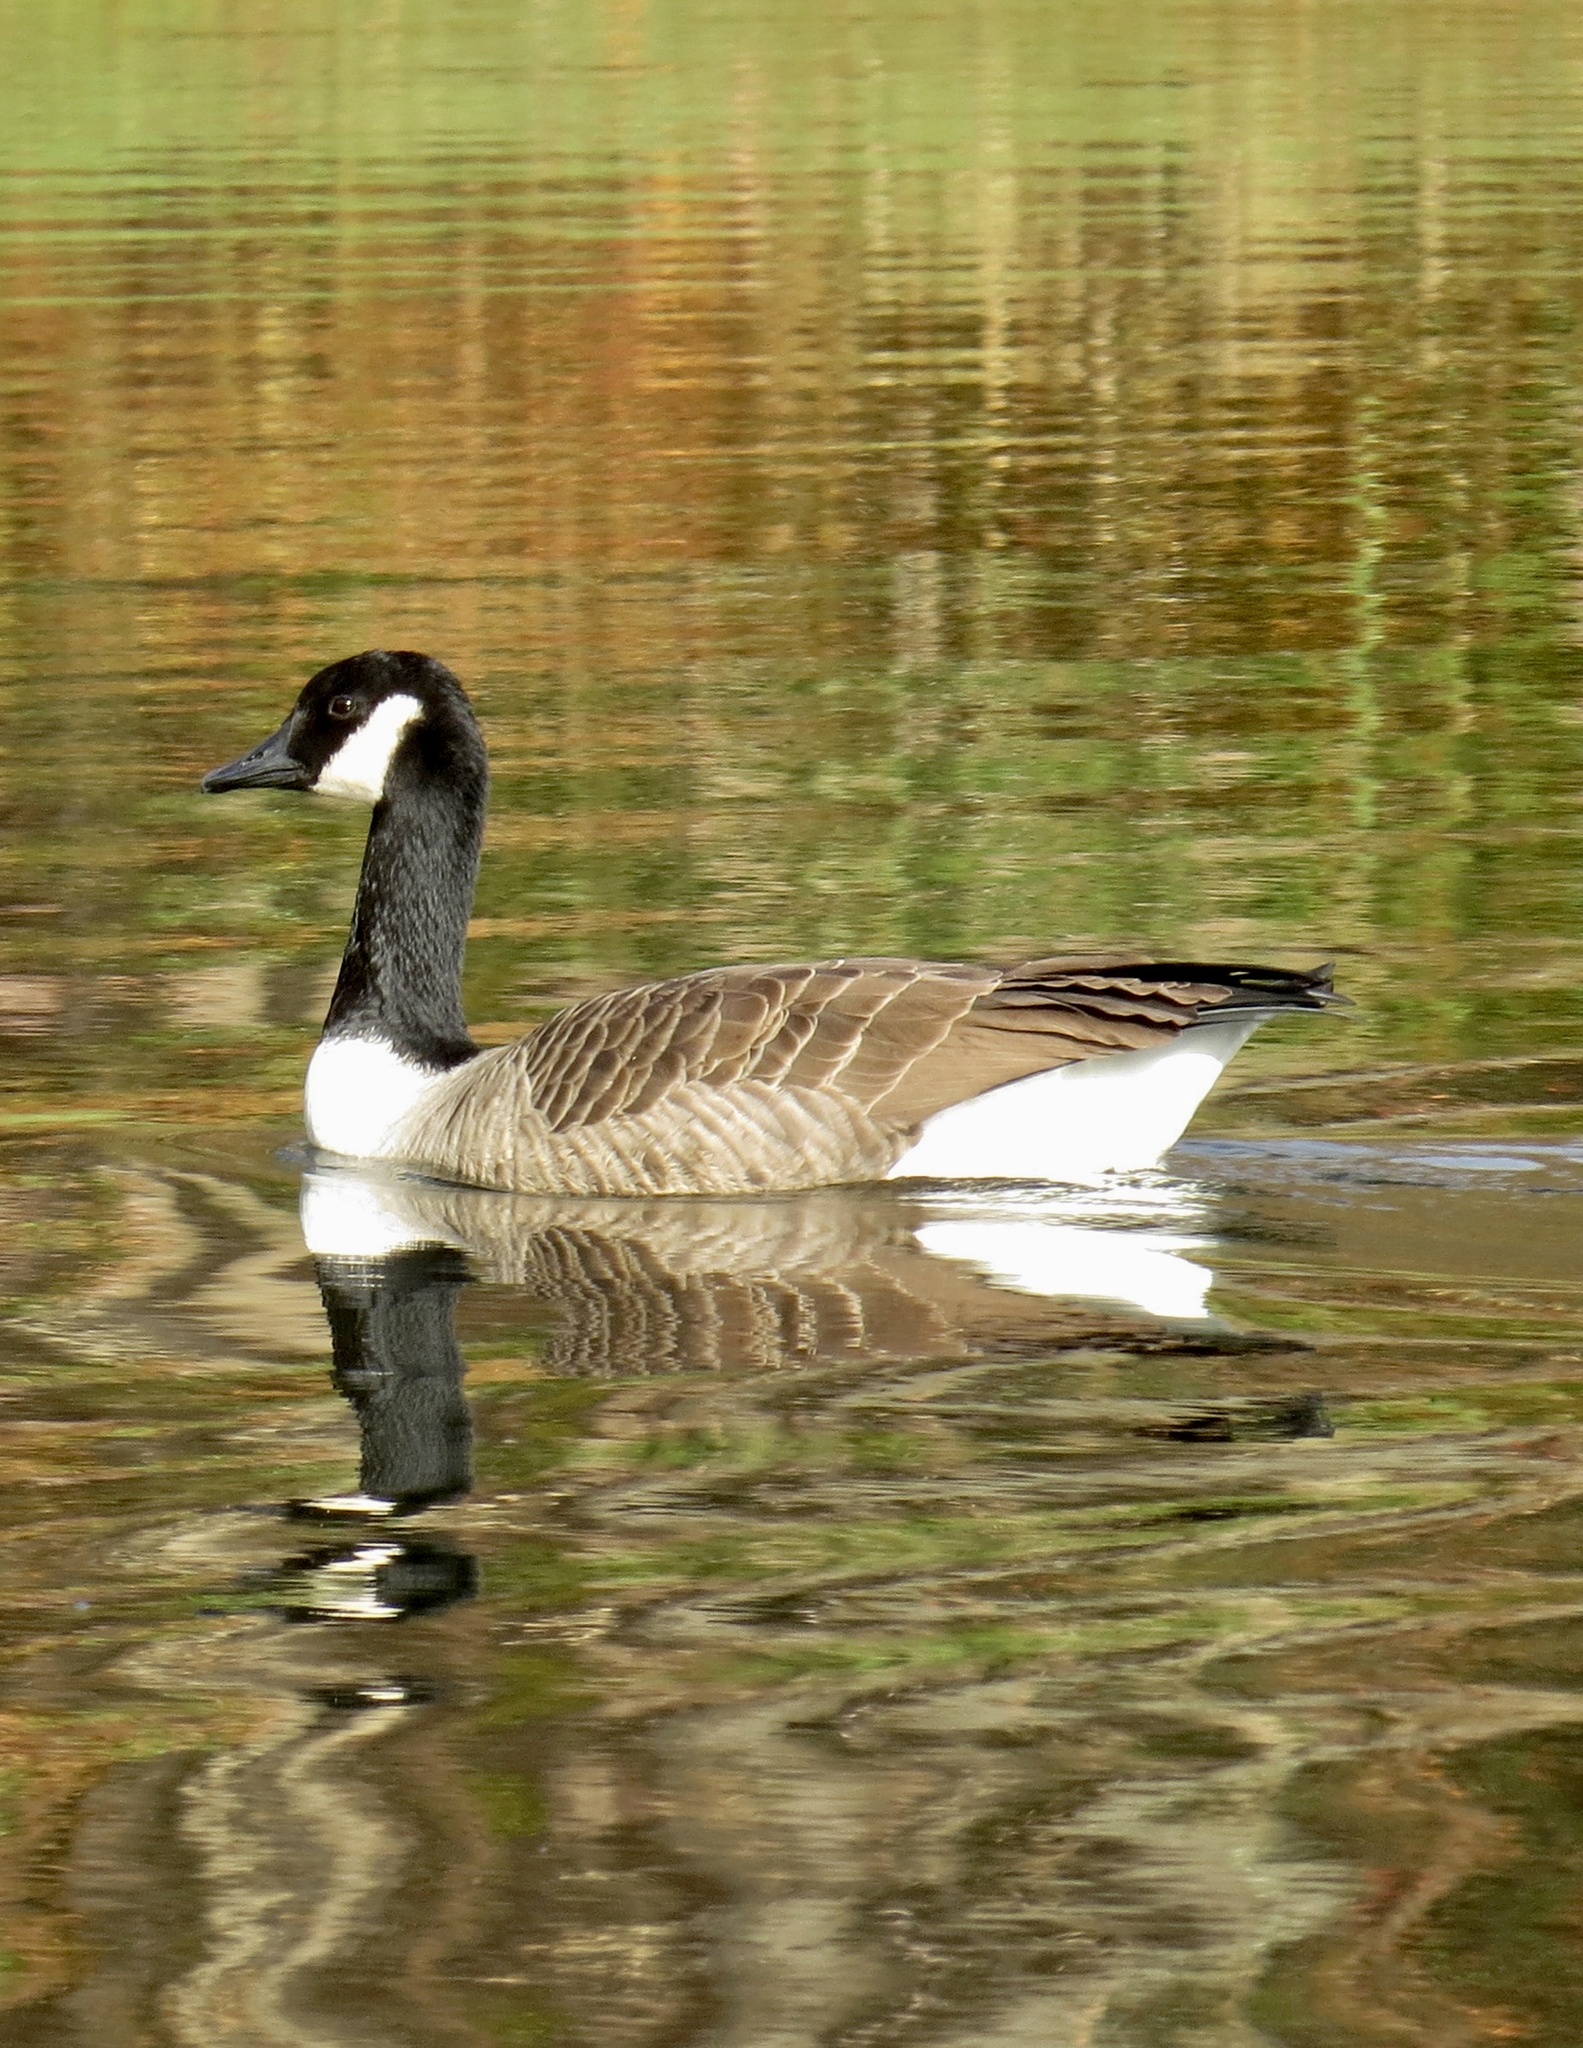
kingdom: Animalia
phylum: Chordata
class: Aves
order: Anseriformes
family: Anatidae
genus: Branta
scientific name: Branta canadensis
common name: Canada goose
